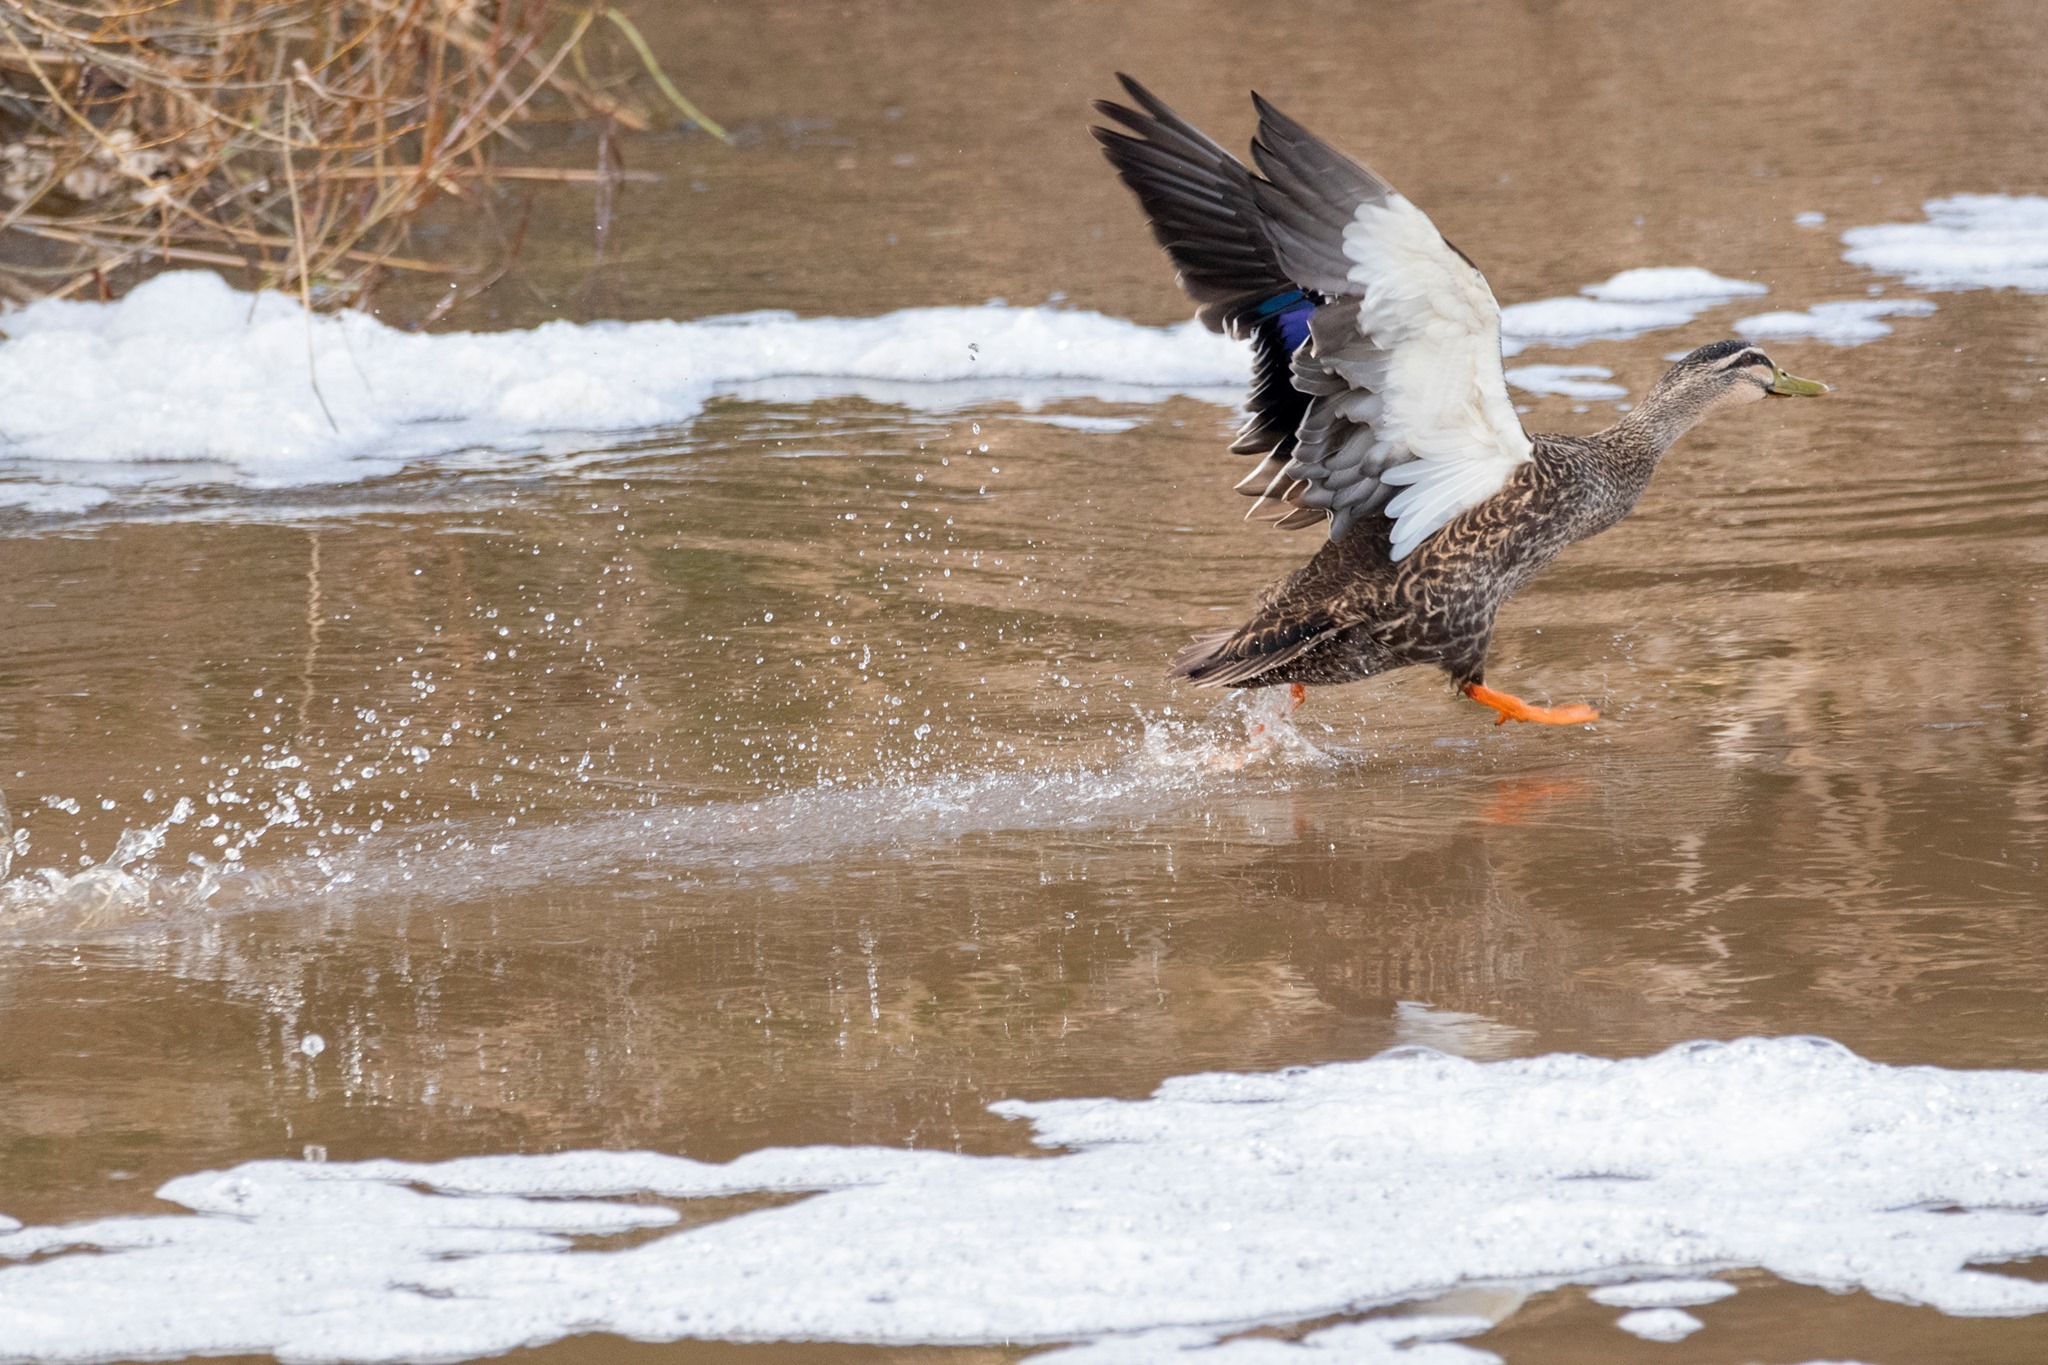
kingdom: Animalia
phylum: Chordata
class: Aves
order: Anseriformes
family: Anatidae
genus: Anas
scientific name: Anas
